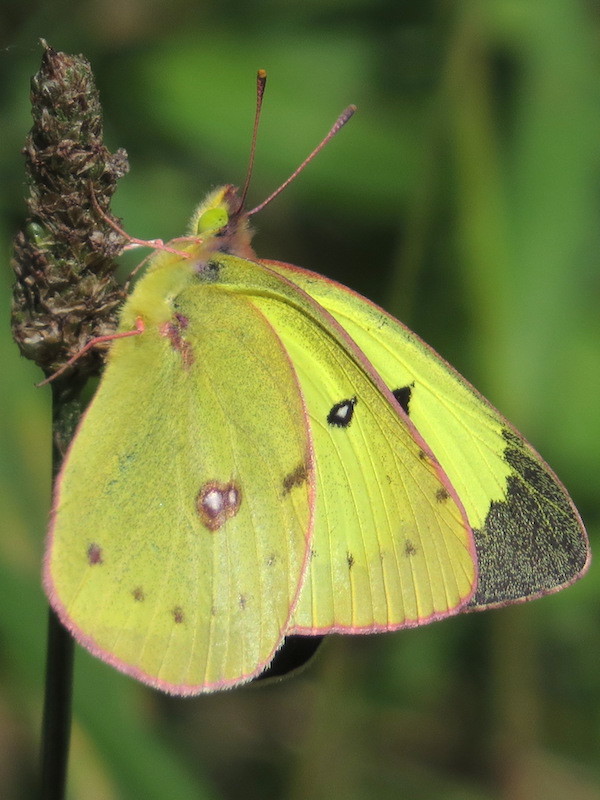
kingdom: Animalia
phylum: Arthropoda
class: Insecta
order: Lepidoptera
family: Pieridae
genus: Colias
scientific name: Colias philodice
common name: Clouded sulphur
